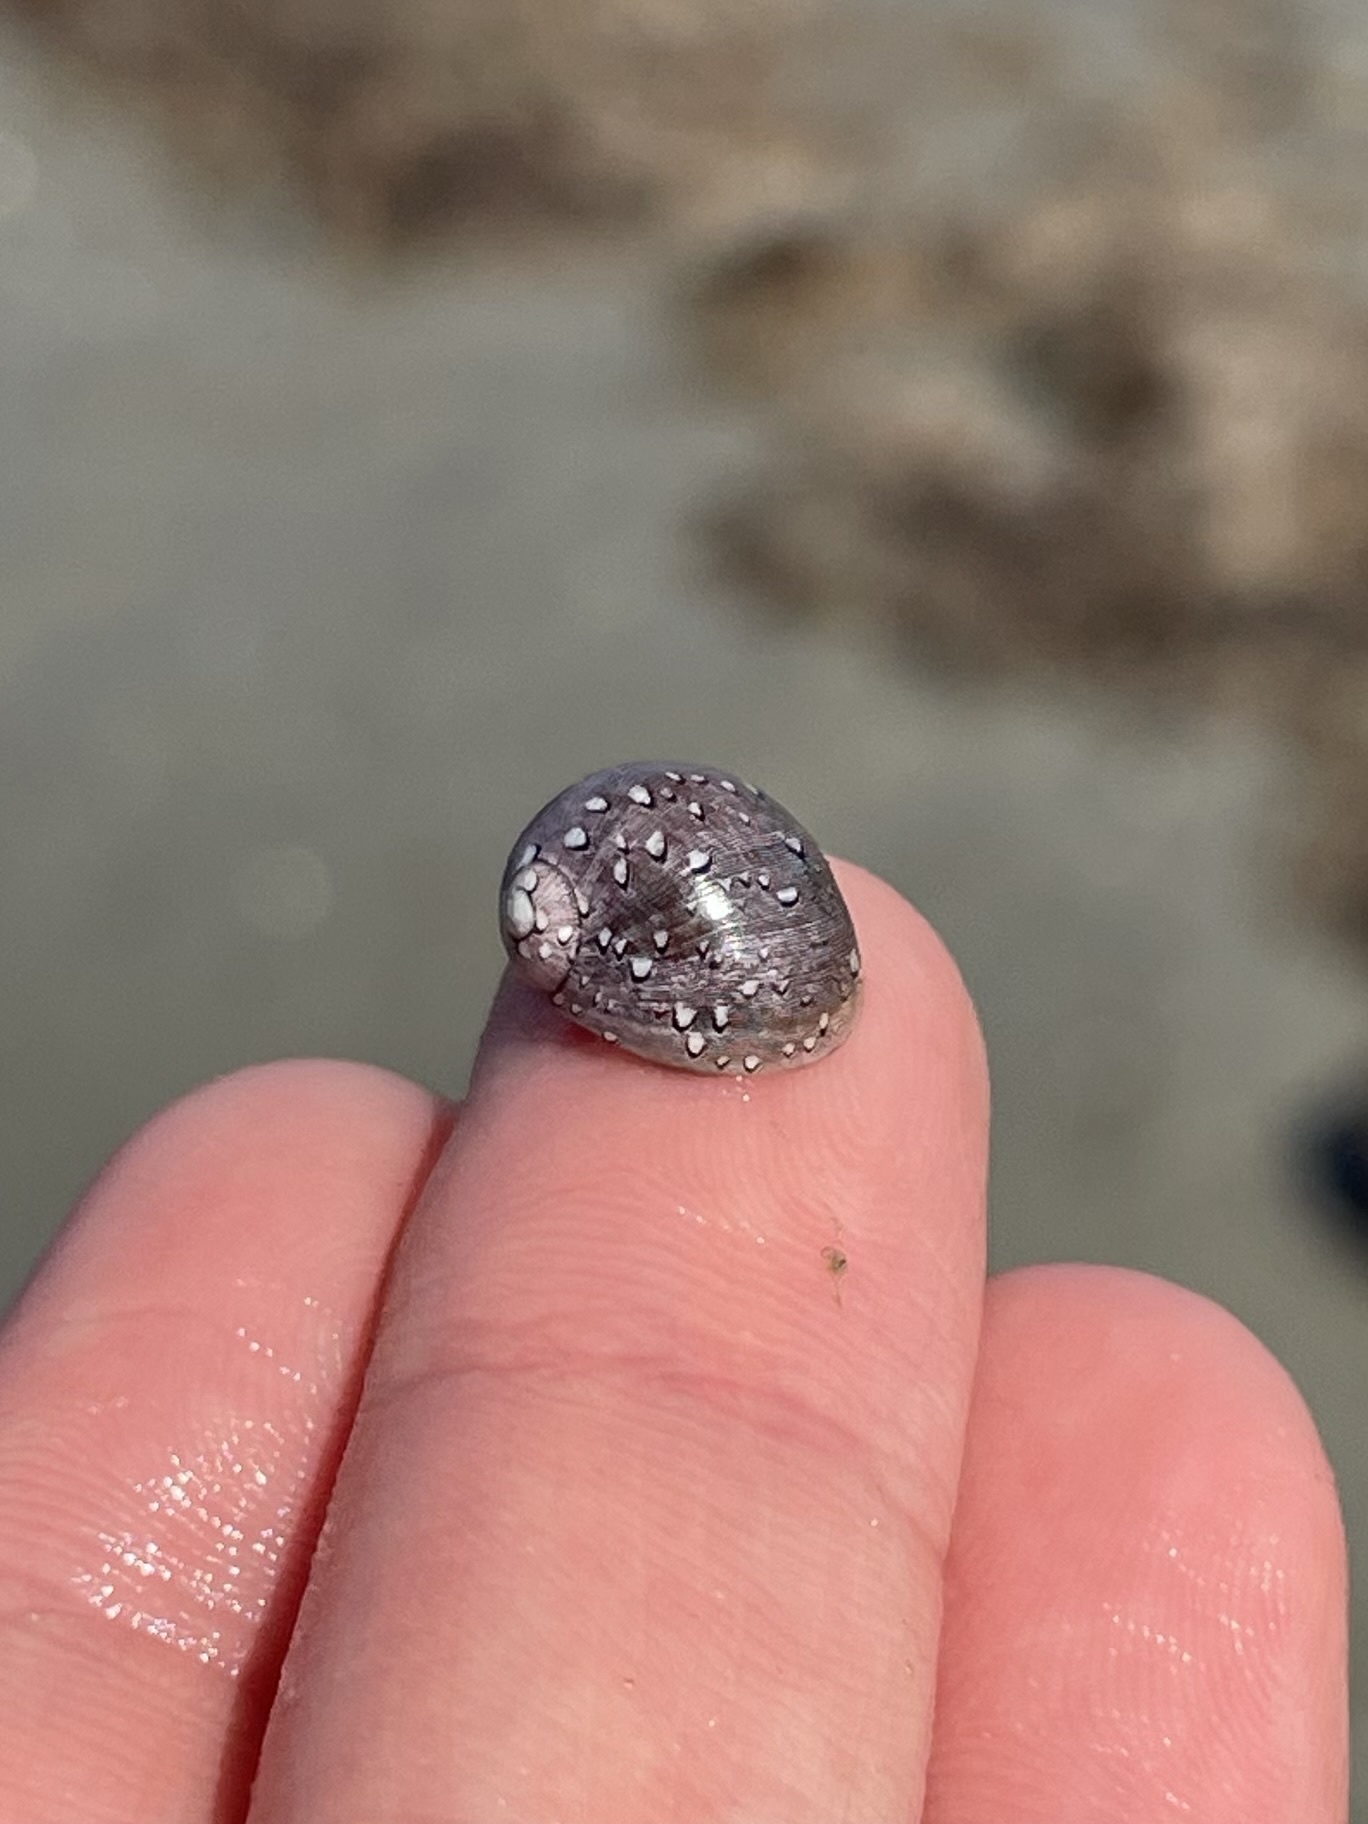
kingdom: Animalia
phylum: Mollusca
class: Gastropoda
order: Cycloneritida
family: Neritidae
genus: Vitta
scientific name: Vitta virginea
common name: Virgin nerite
